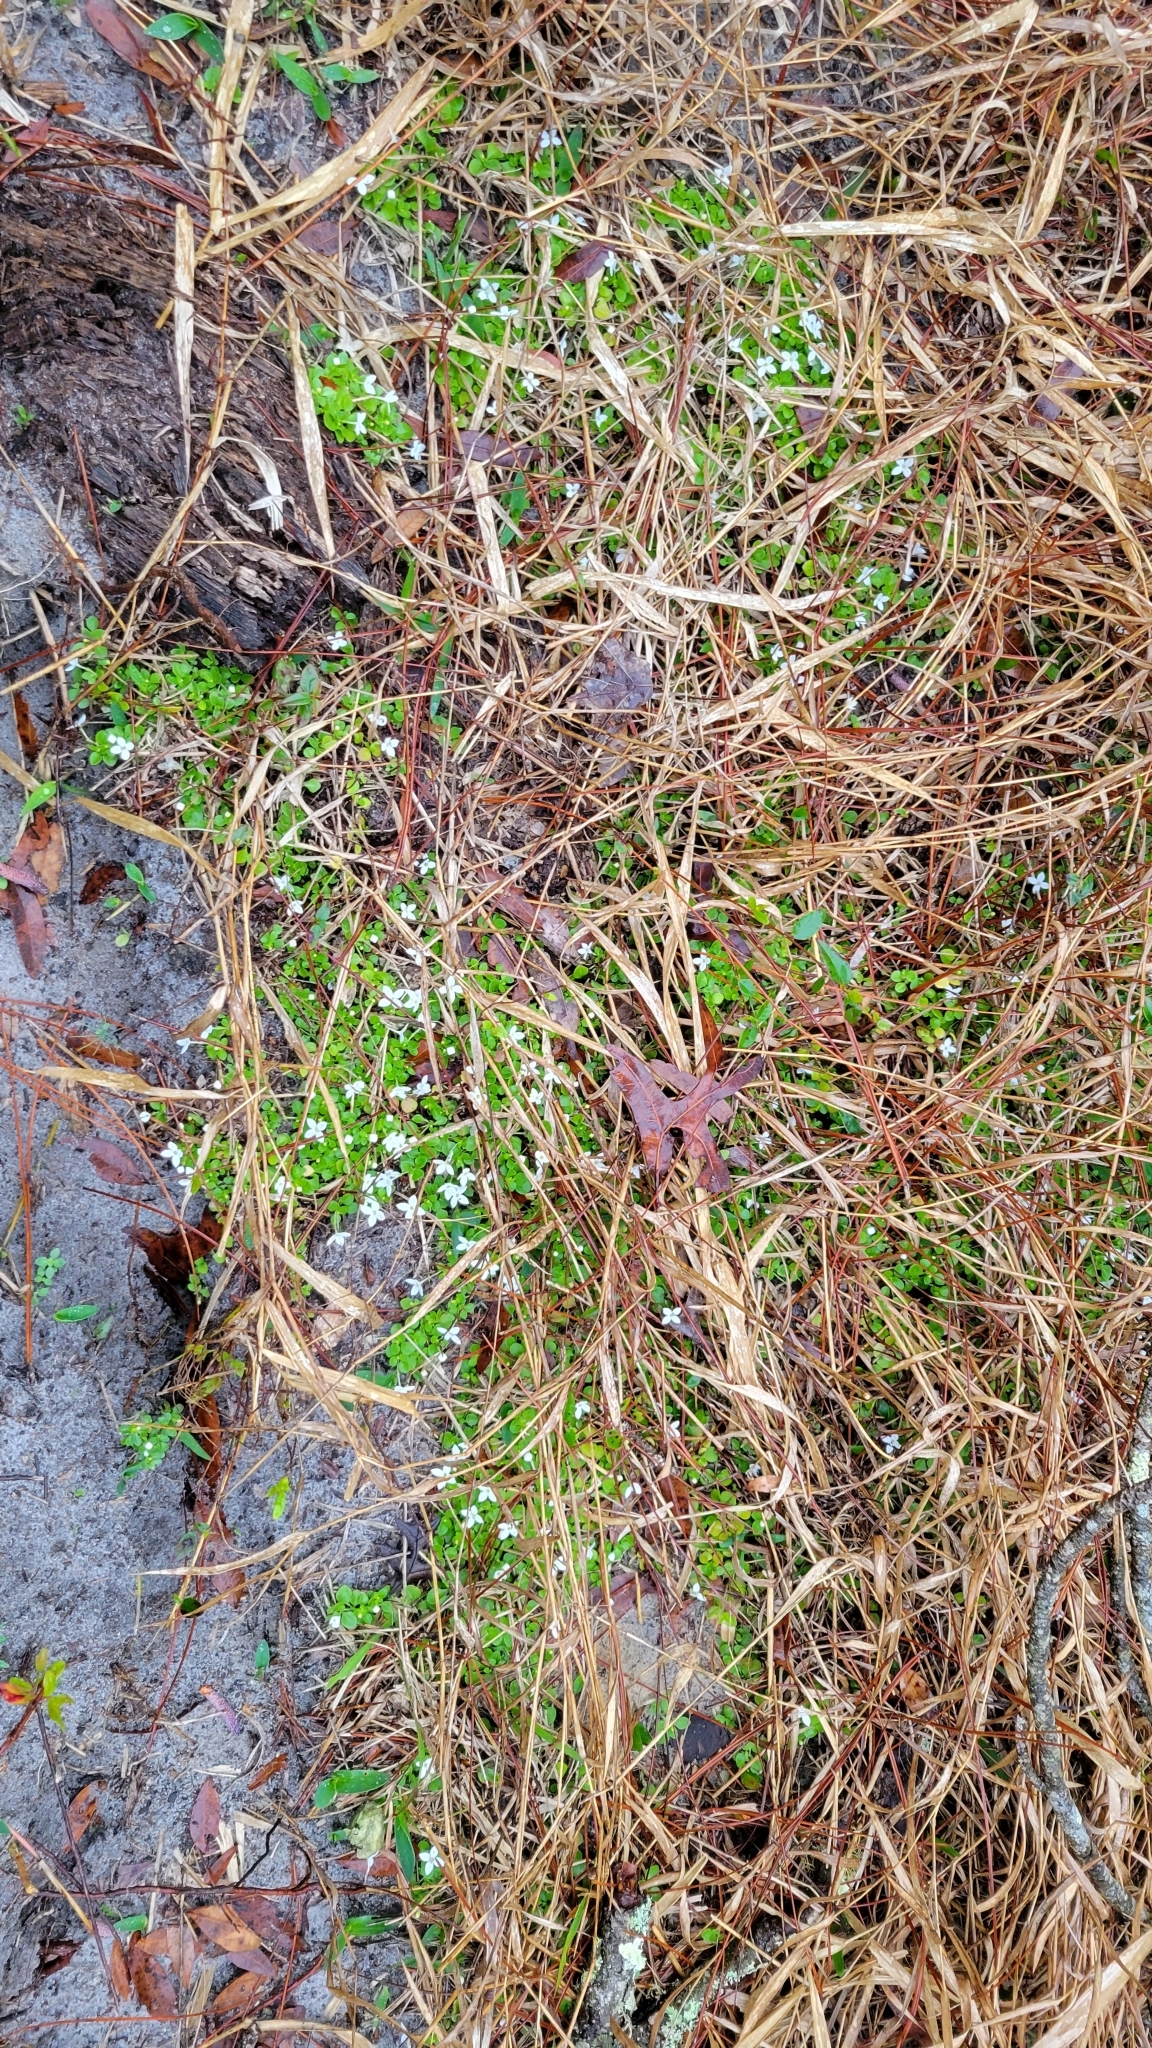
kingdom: Plantae
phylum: Tracheophyta
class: Magnoliopsida
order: Gentianales
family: Rubiaceae
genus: Houstonia
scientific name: Houstonia procumbens
